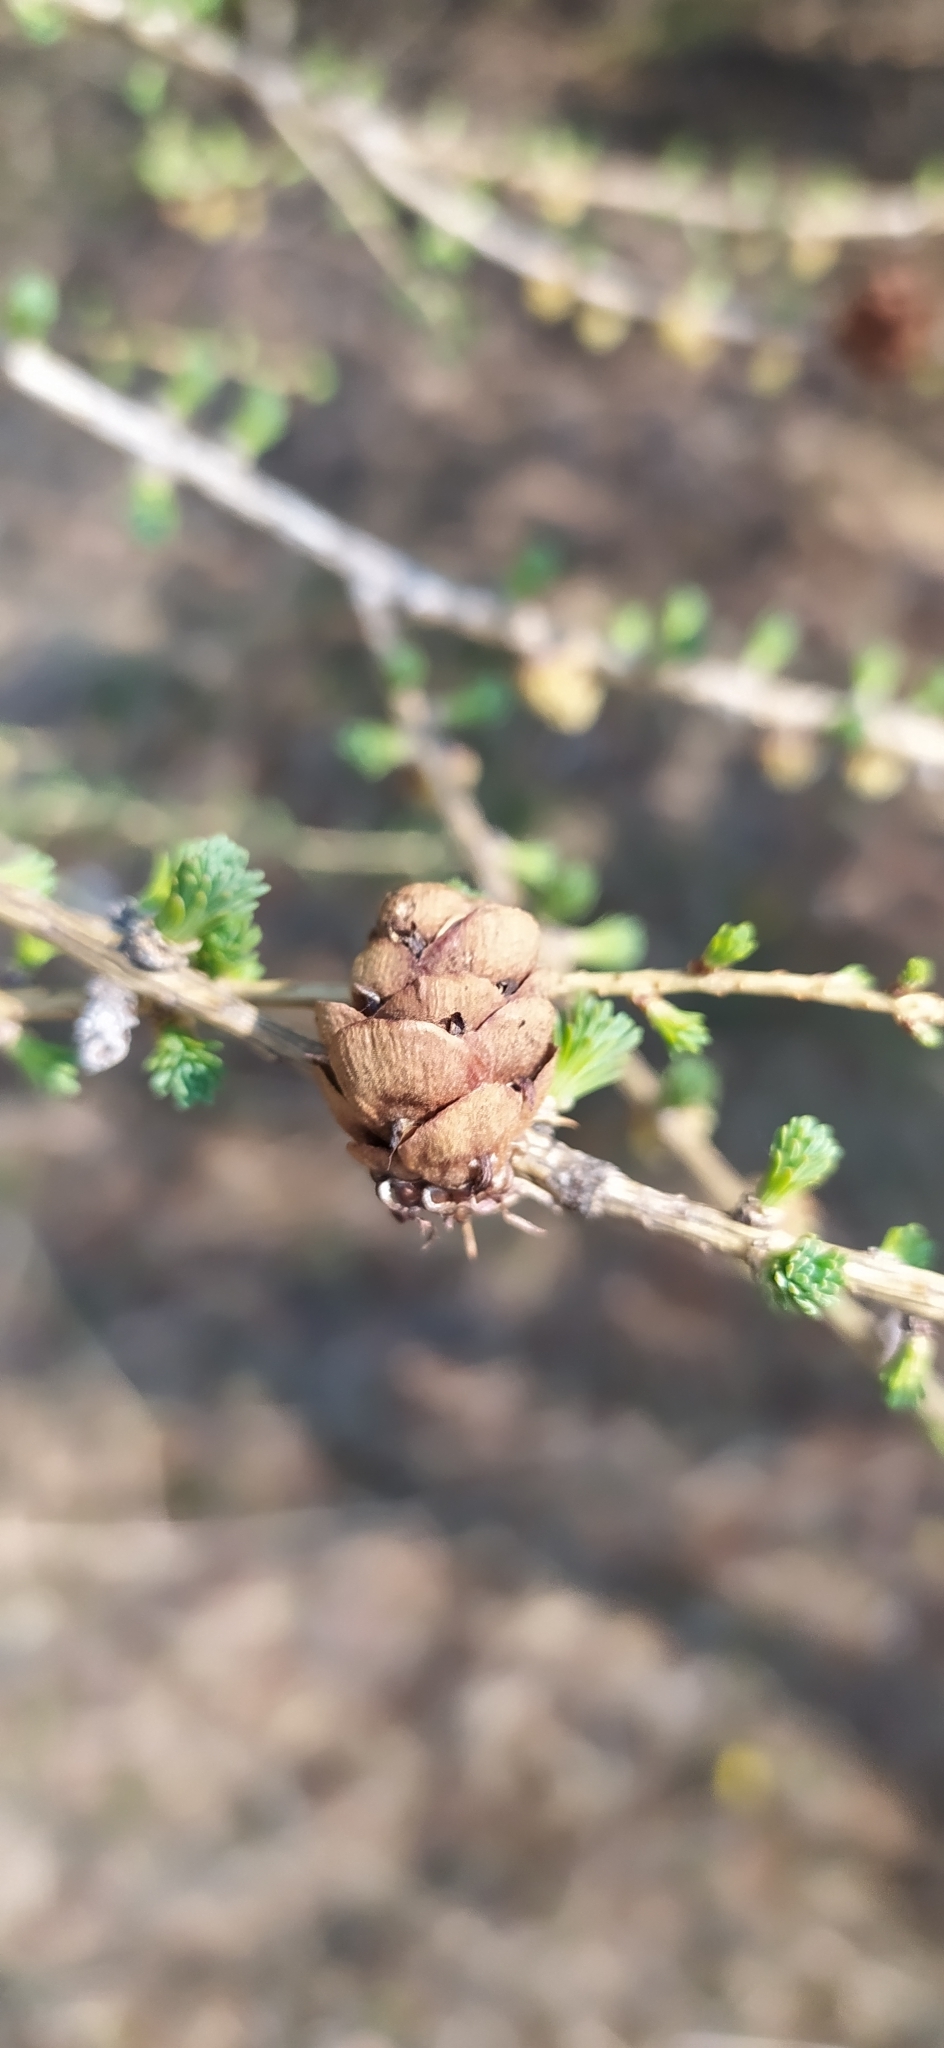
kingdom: Plantae
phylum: Tracheophyta
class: Pinopsida
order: Pinales
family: Pinaceae
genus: Larix
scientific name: Larix sibirica
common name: Siberian larch
